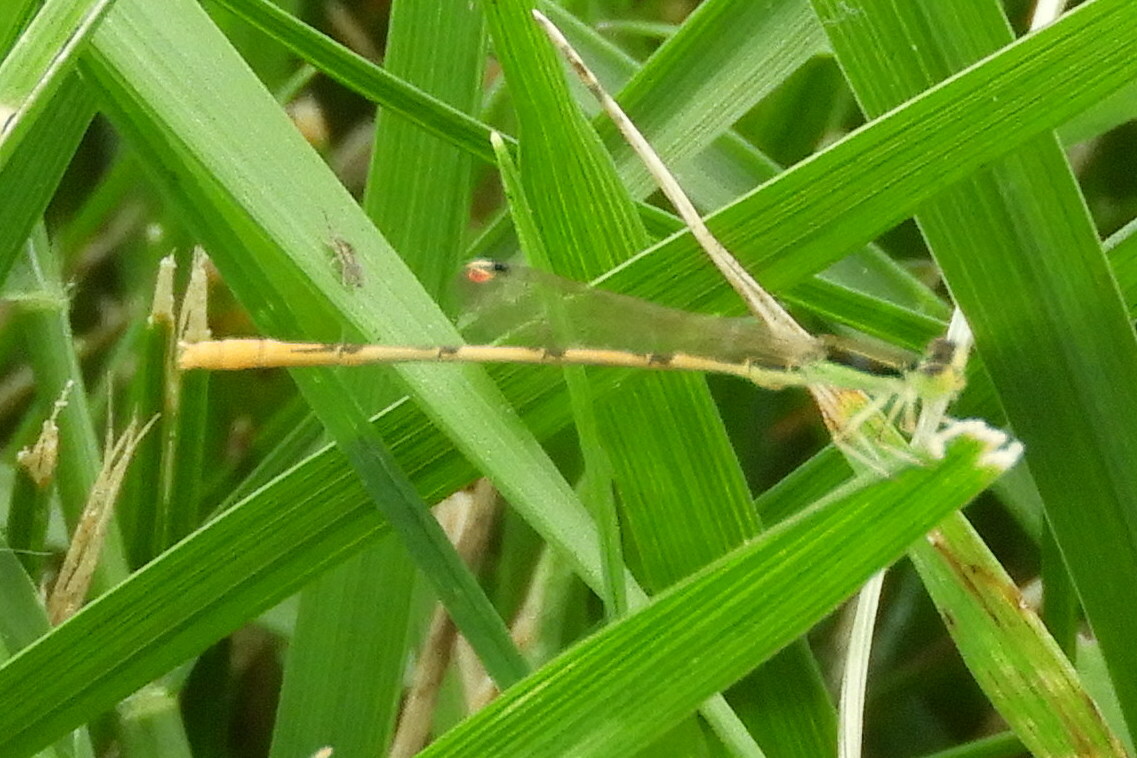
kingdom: Animalia
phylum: Arthropoda
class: Insecta
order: Odonata
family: Coenagrionidae
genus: Ischnura
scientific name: Ischnura hastata
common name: Citrine forktail
